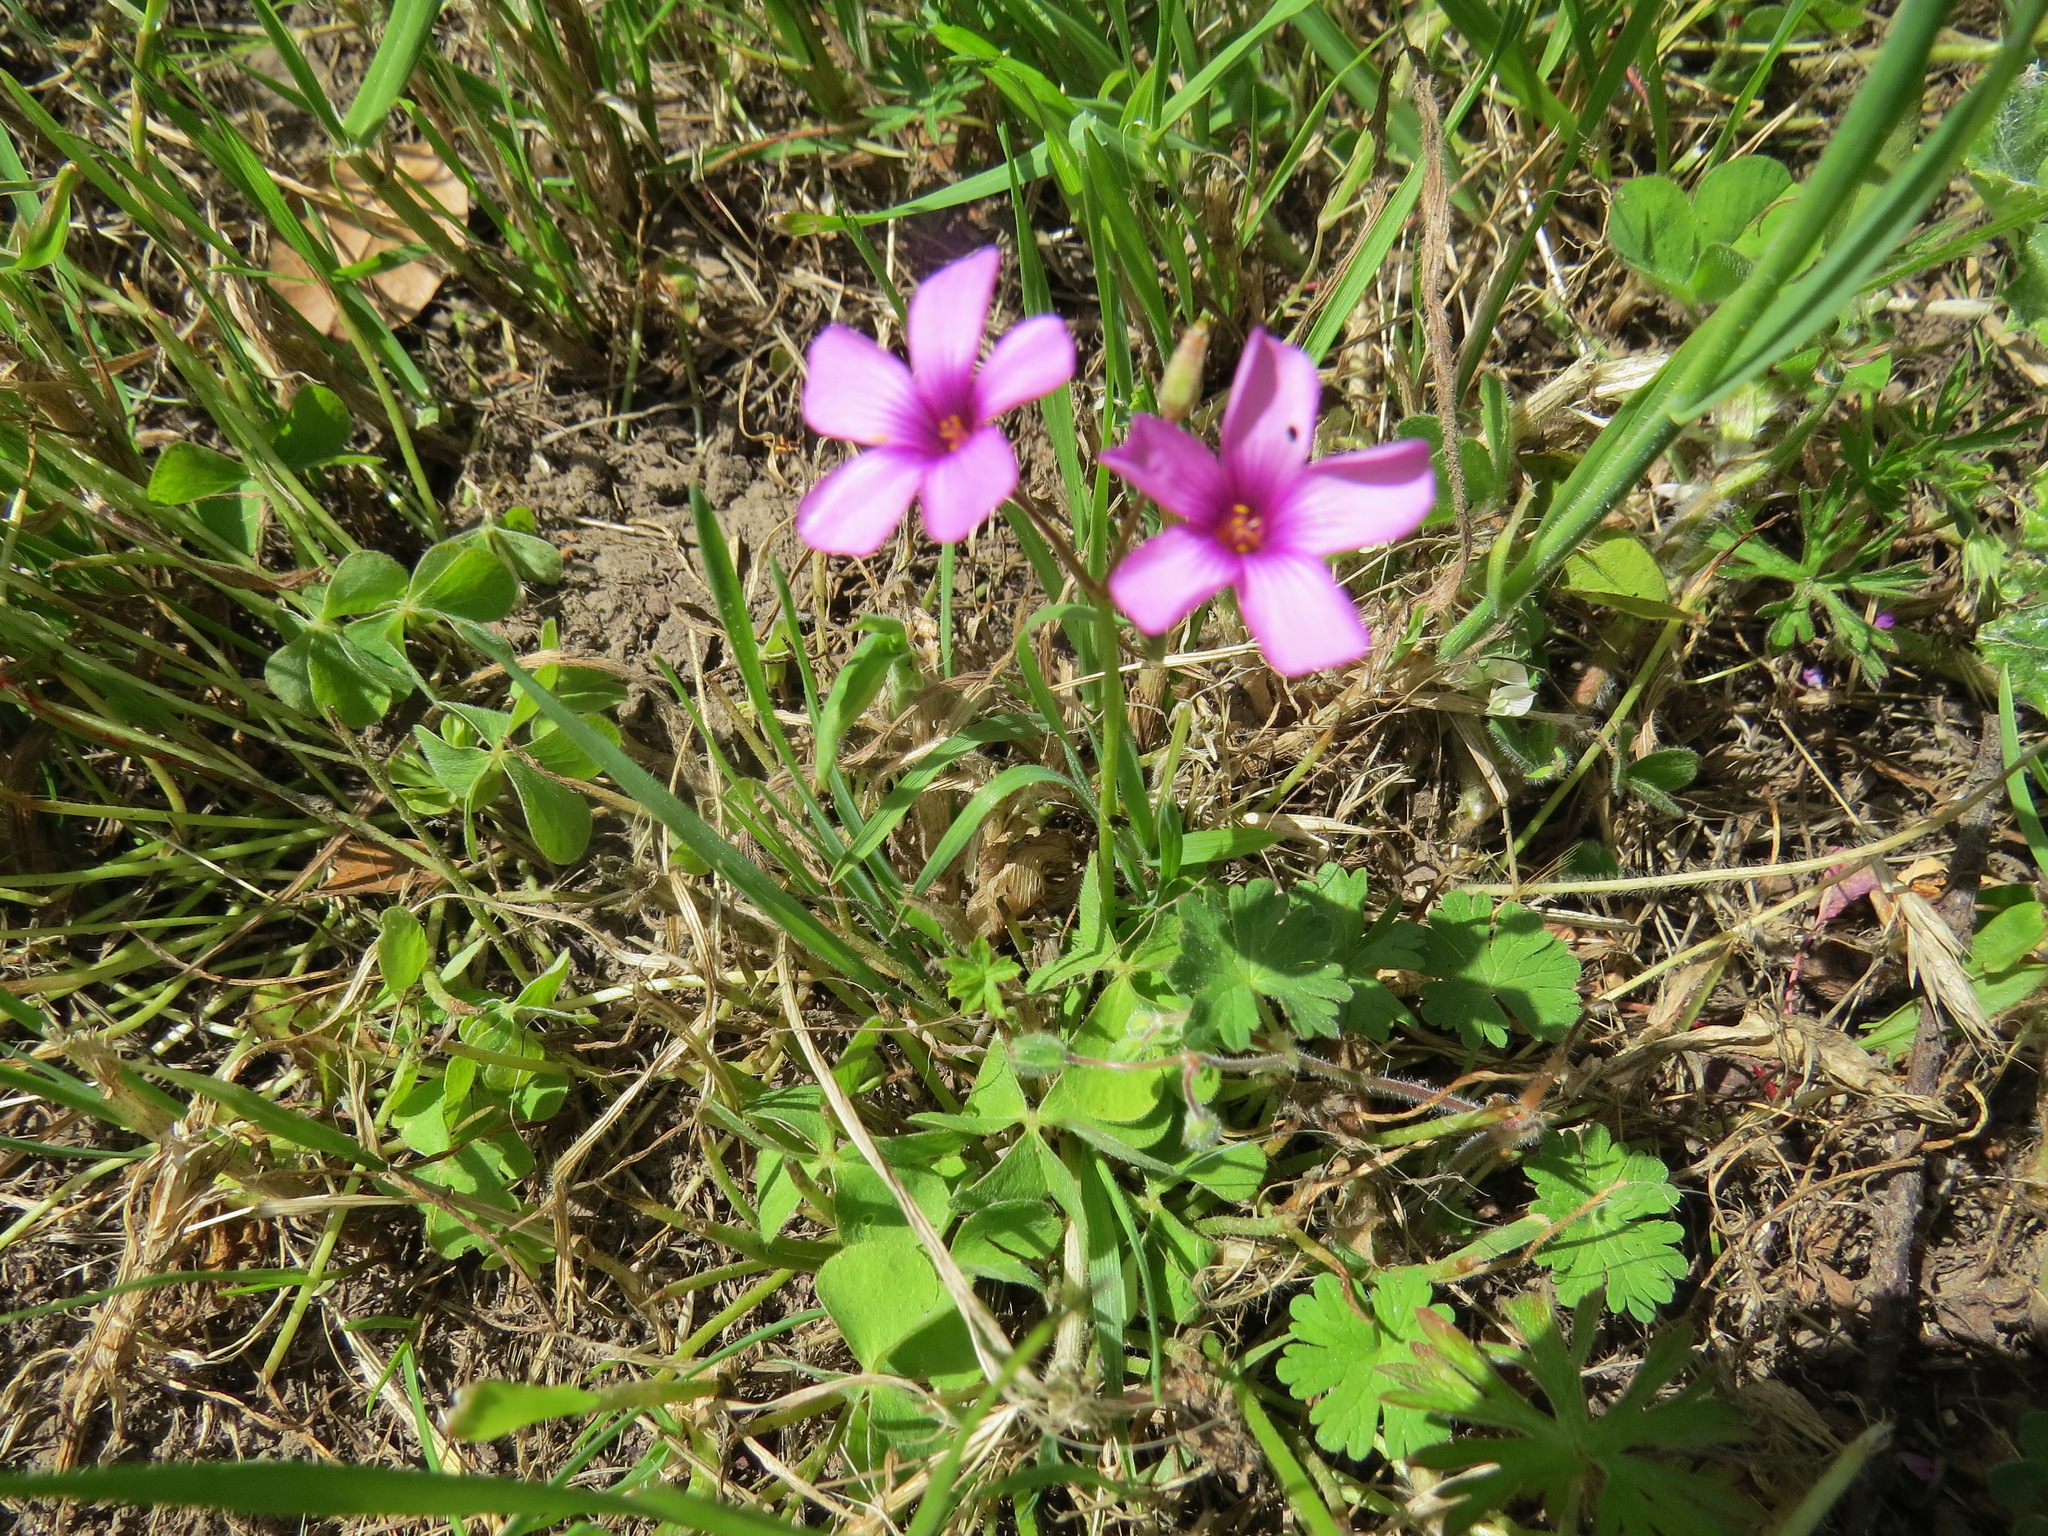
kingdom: Plantae
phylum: Tracheophyta
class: Magnoliopsida
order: Oxalidales
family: Oxalidaceae
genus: Oxalis
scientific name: Oxalis articulata
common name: Pink-sorrel
